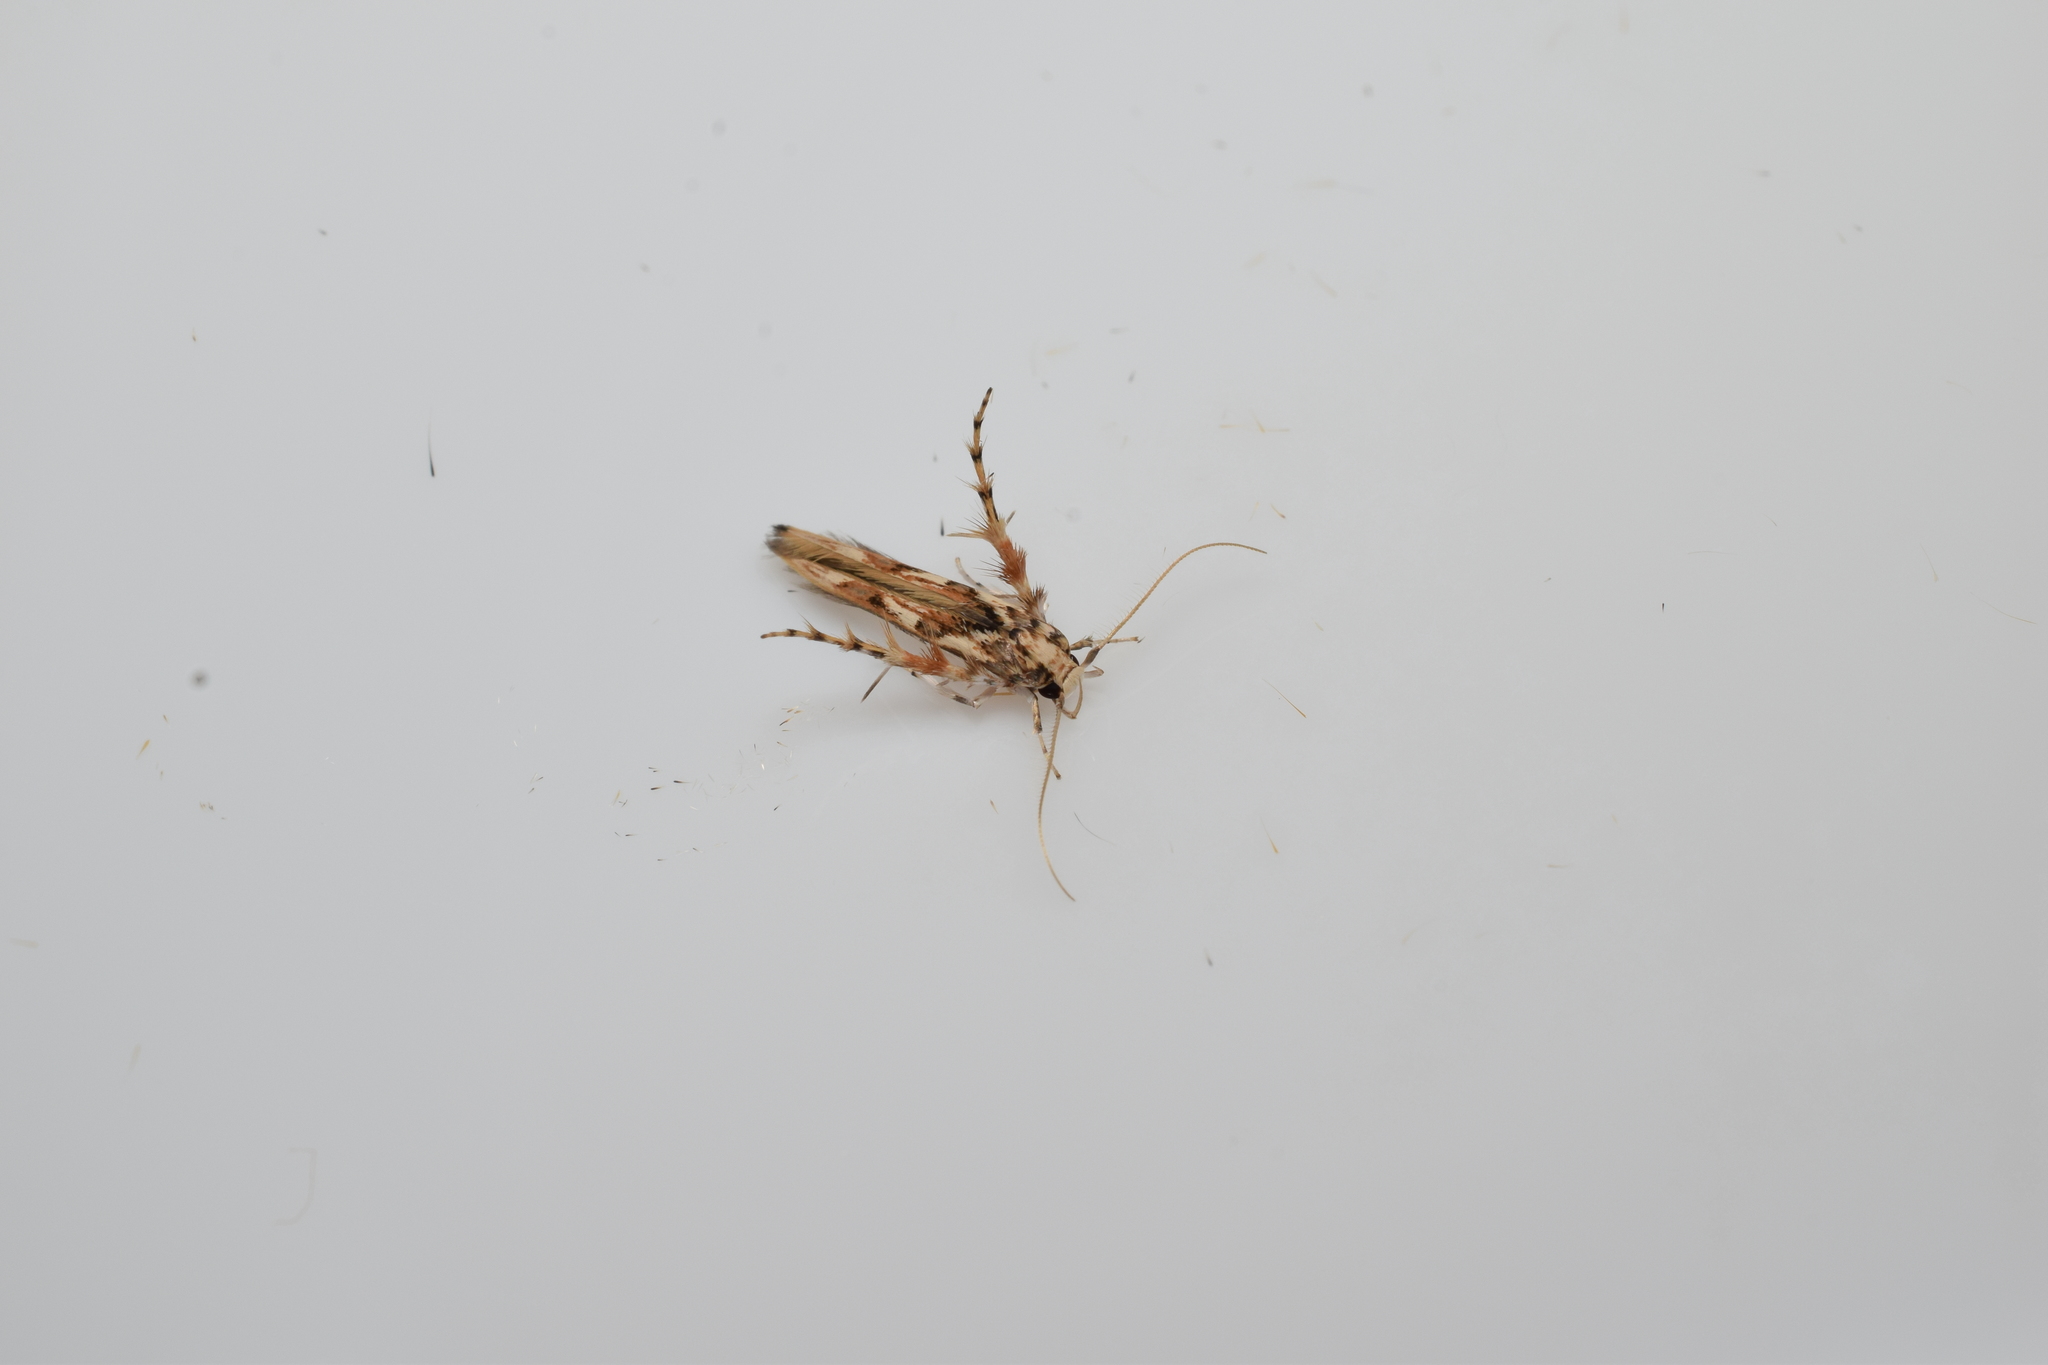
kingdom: Animalia
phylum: Arthropoda
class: Insecta
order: Lepidoptera
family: Stathmopodidae
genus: Stathmopoda
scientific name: Stathmopoda stimulata
